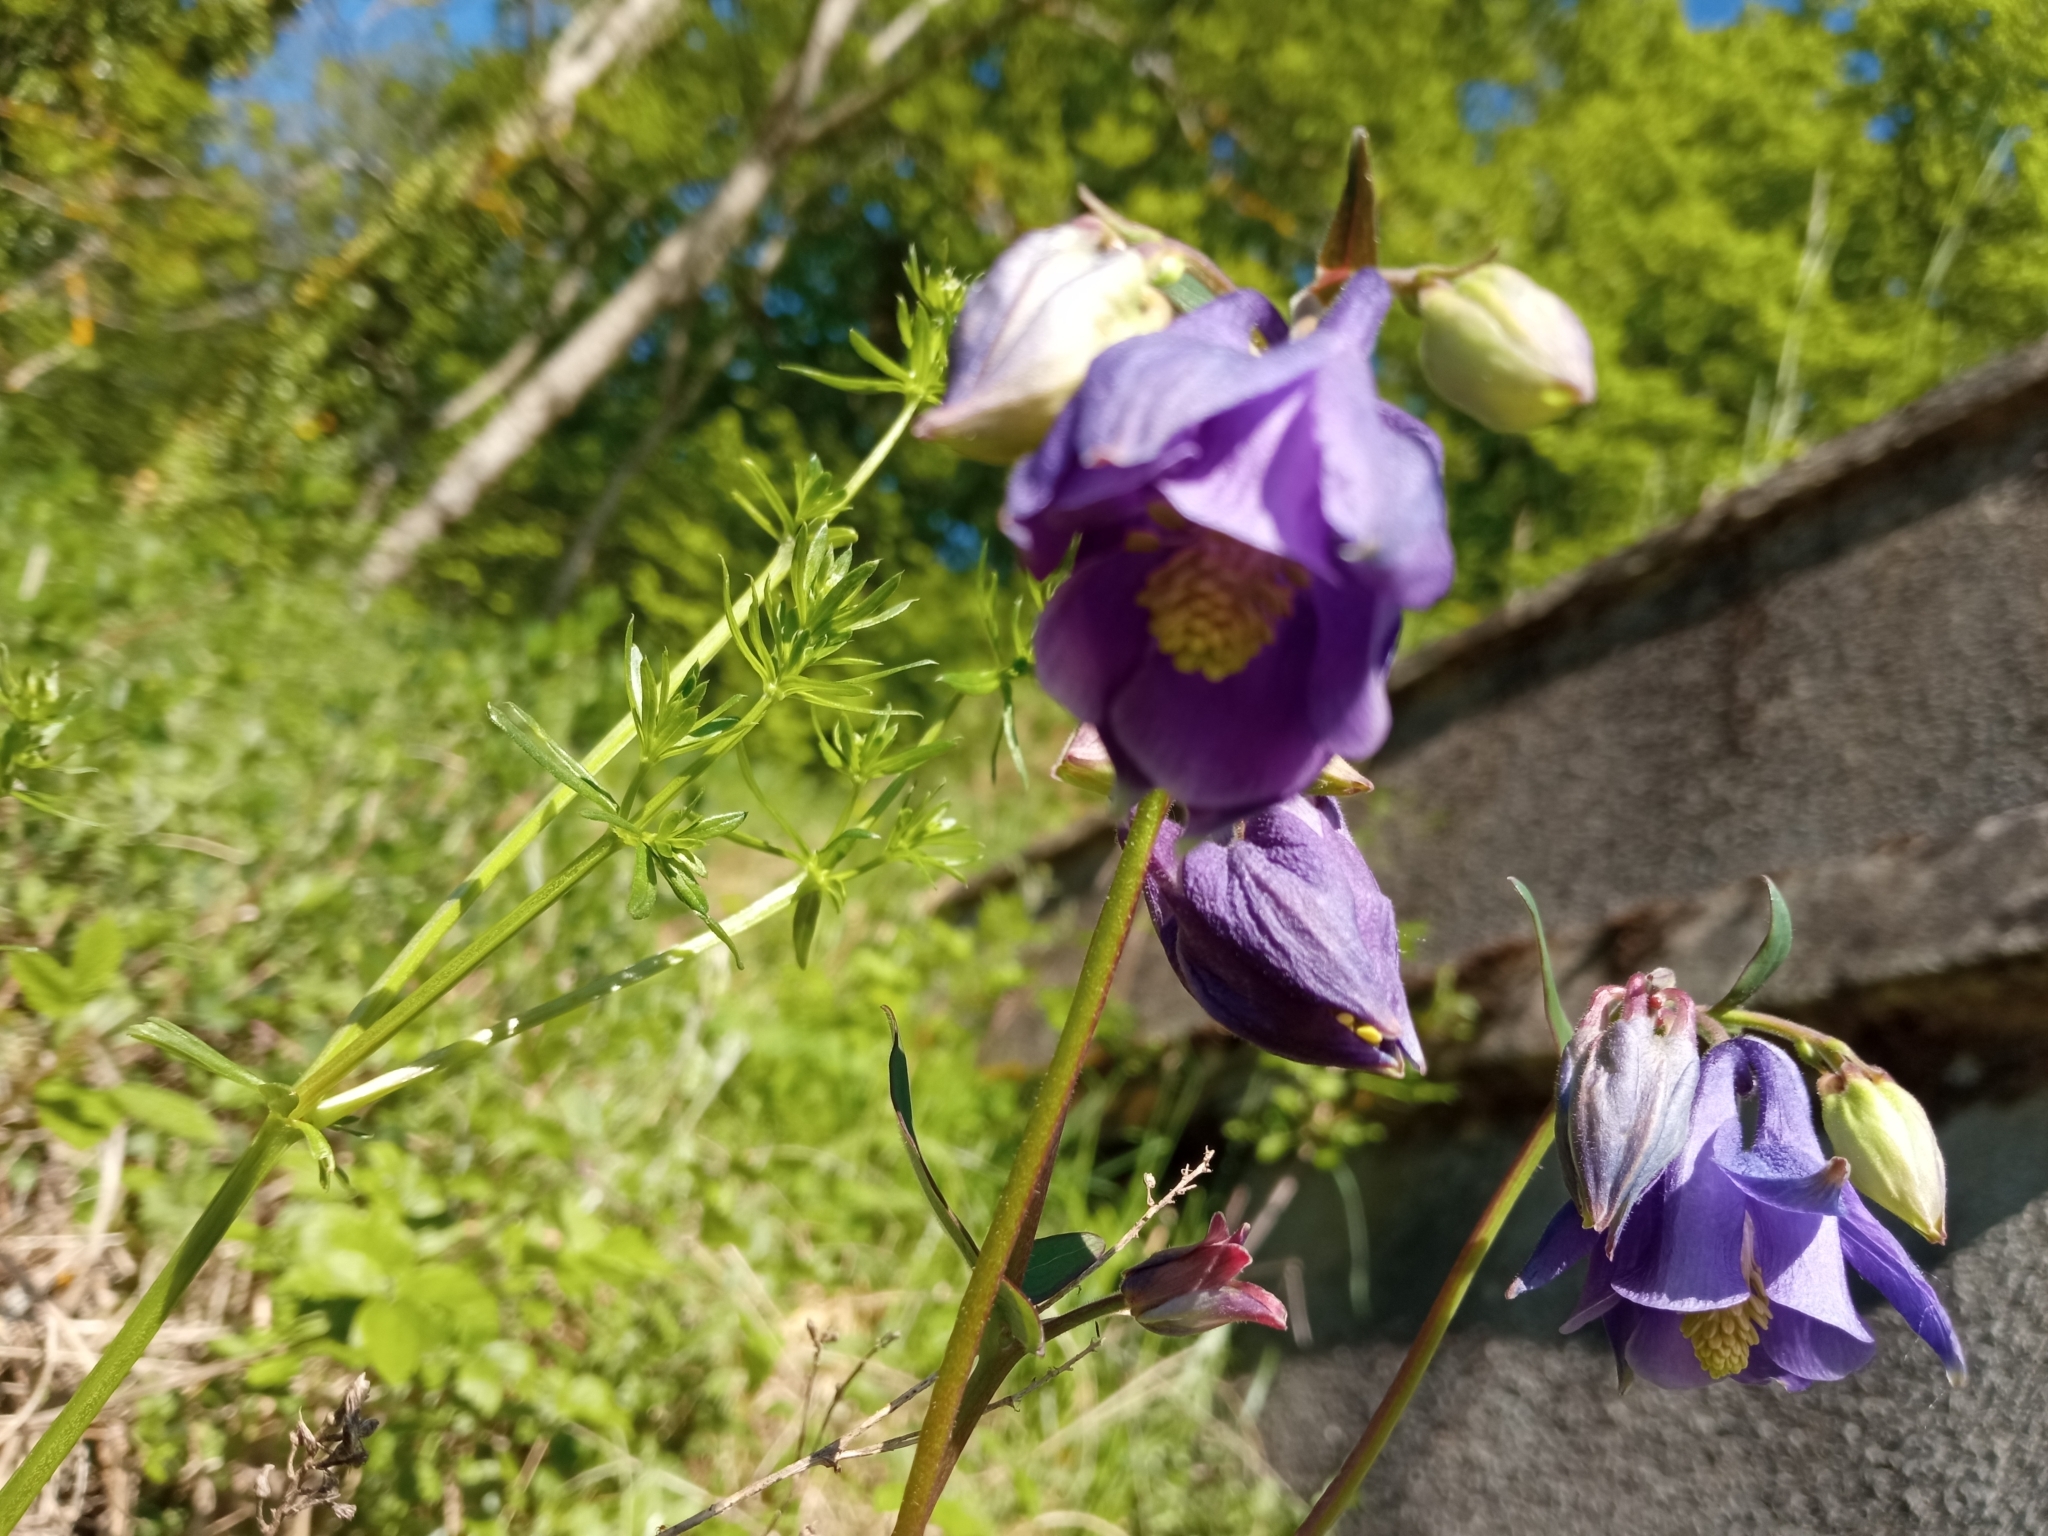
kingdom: Plantae
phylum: Tracheophyta
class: Magnoliopsida
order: Ranunculales
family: Ranunculaceae
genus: Aquilegia
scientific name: Aquilegia vulgaris
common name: Columbine
